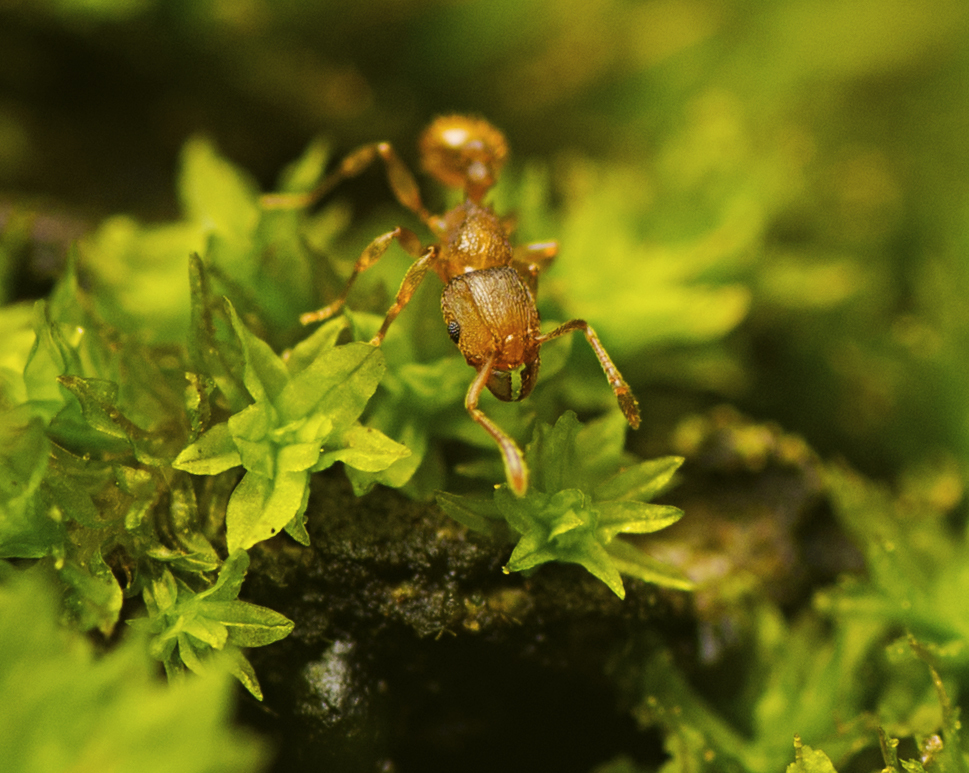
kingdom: Animalia
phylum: Arthropoda
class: Insecta
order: Hymenoptera
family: Formicidae
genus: Tetramorium
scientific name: Tetramorium simillimum
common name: Ant
